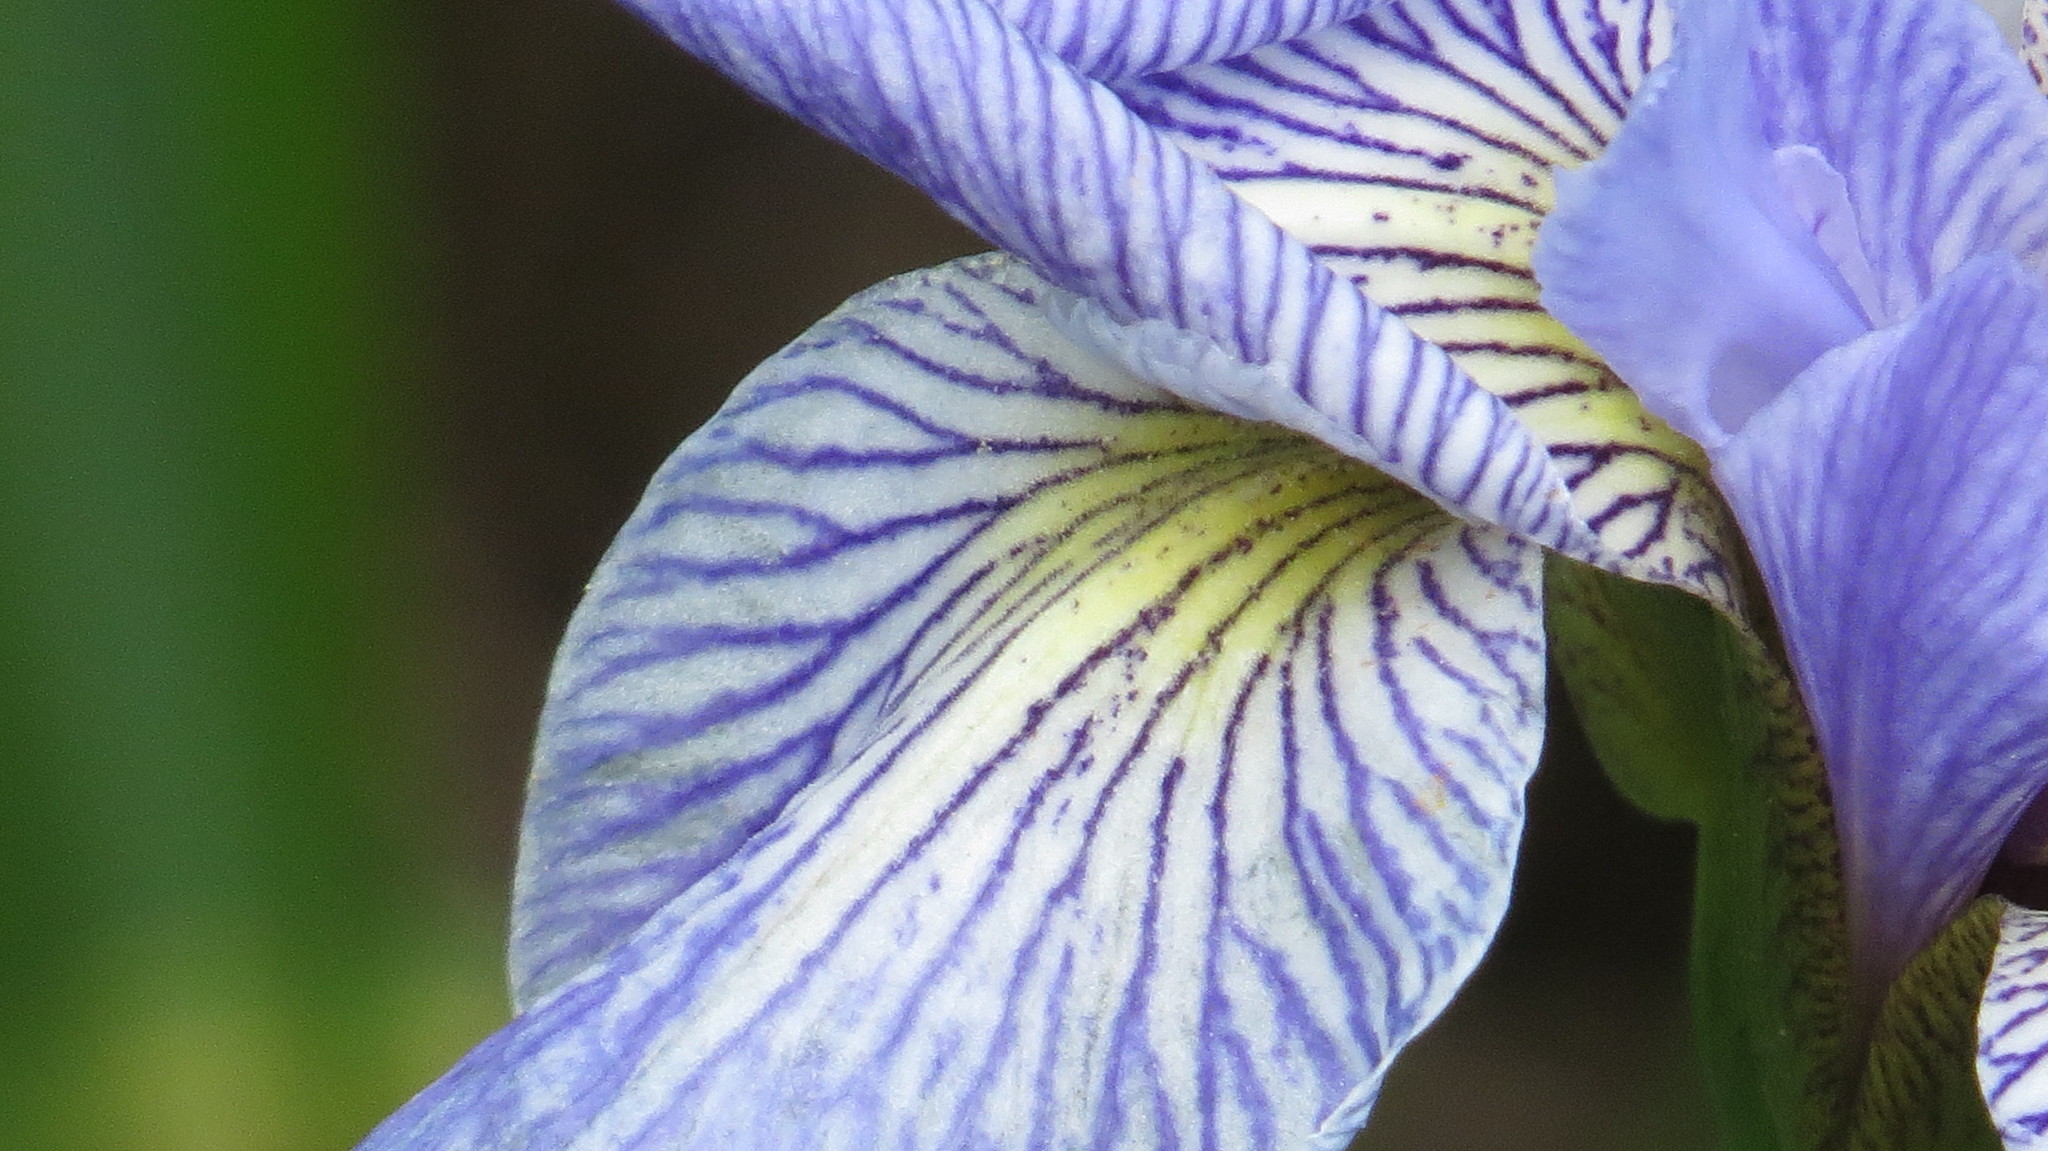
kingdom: Plantae
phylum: Tracheophyta
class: Liliopsida
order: Asparagales
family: Iridaceae
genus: Iris
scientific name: Iris versicolor
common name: Purple iris
